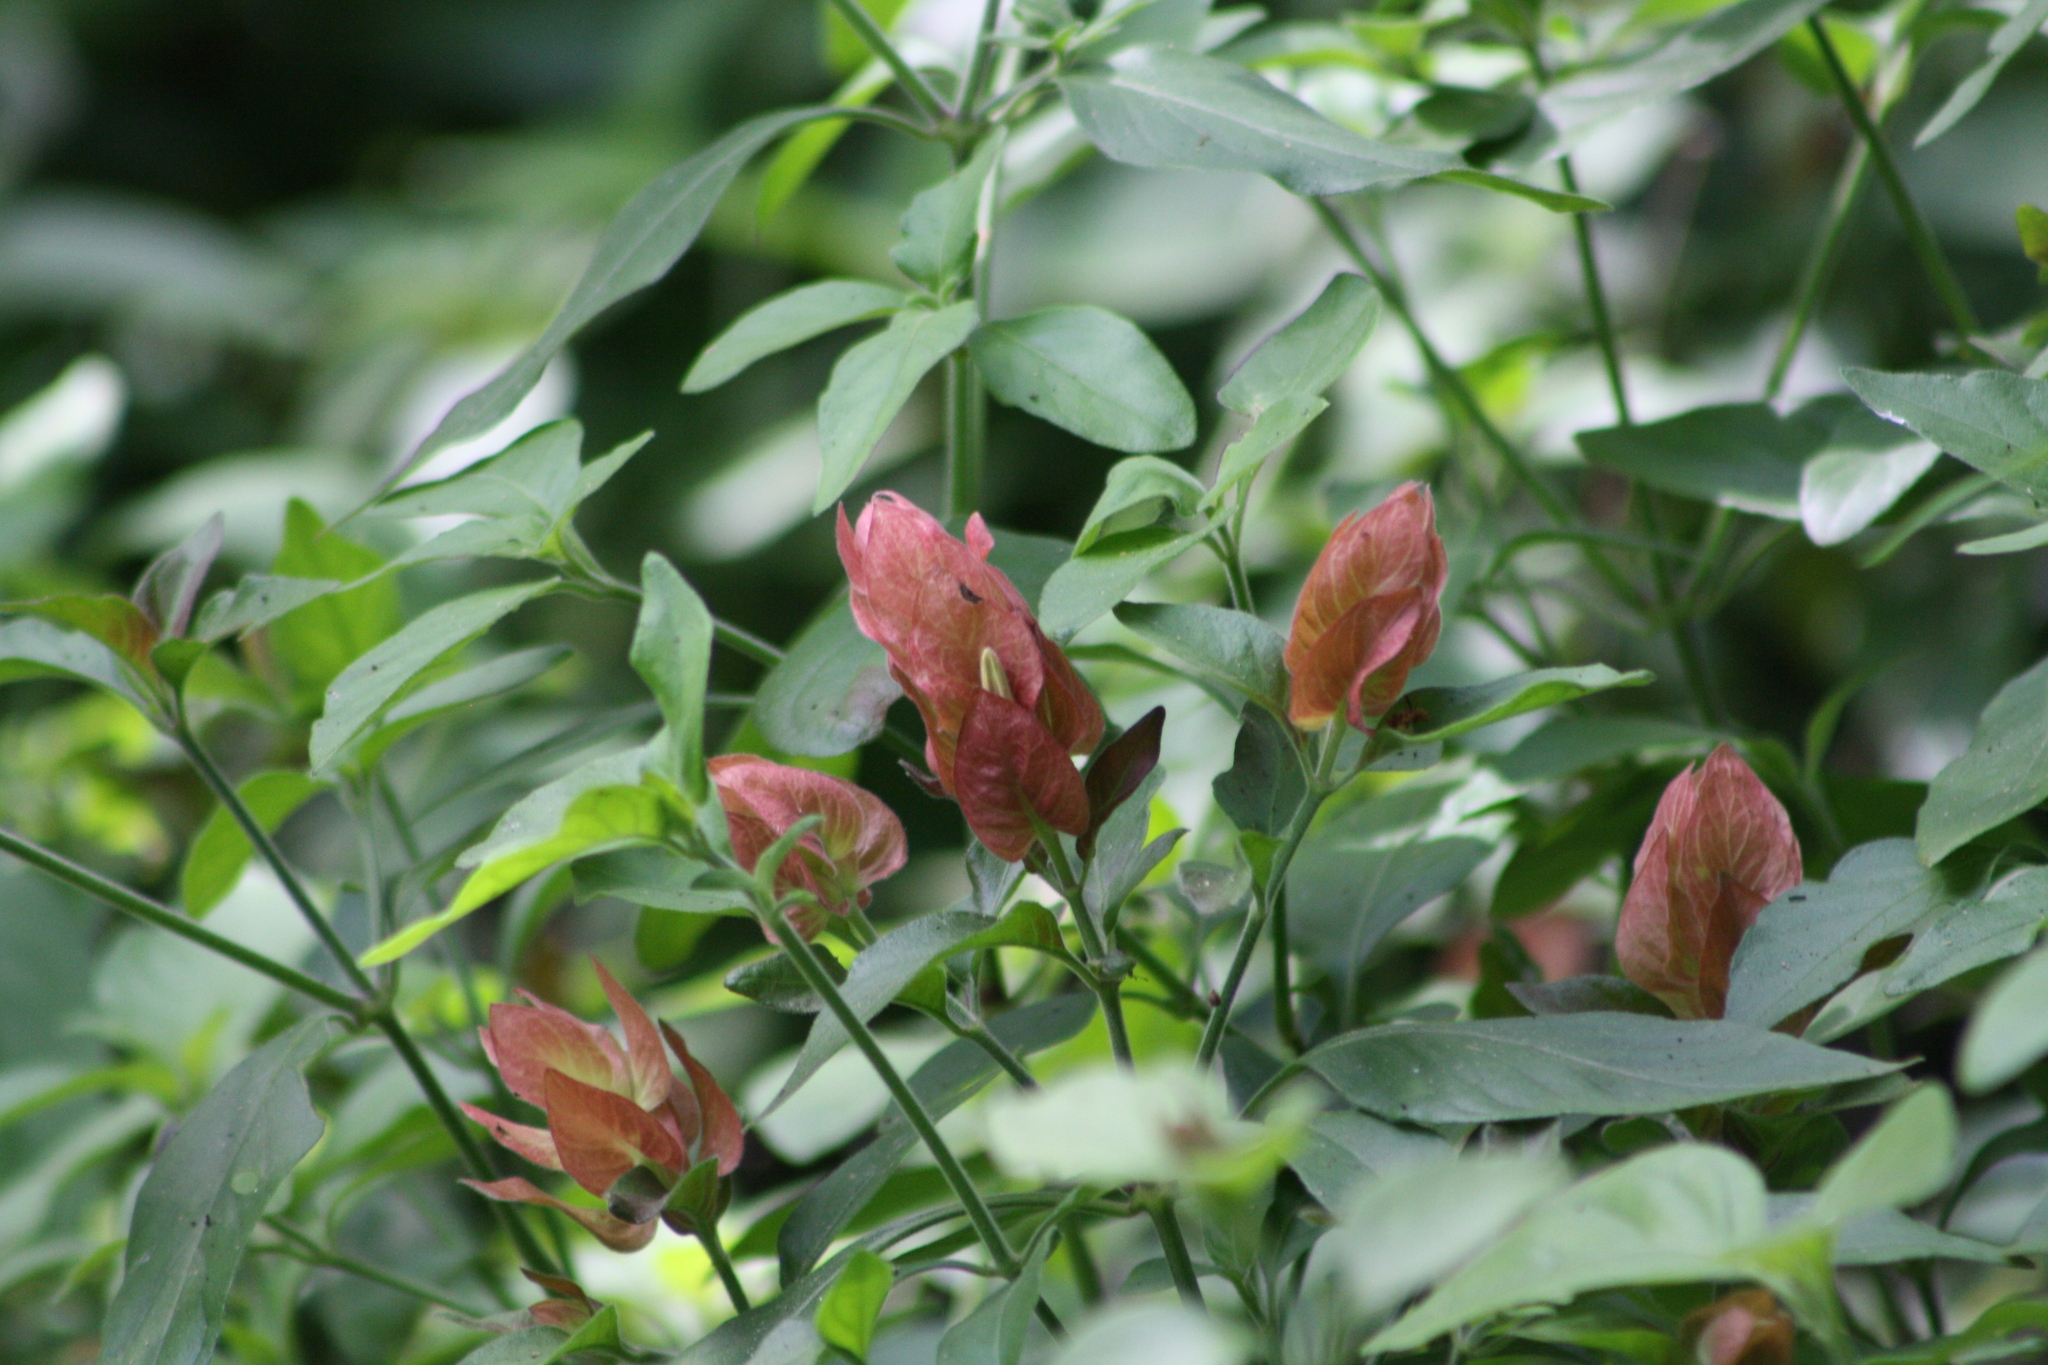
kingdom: Plantae
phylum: Tracheophyta
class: Magnoliopsida
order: Lamiales
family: Acanthaceae
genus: Justicia
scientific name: Justicia brandegeeana
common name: Shrimpplant
